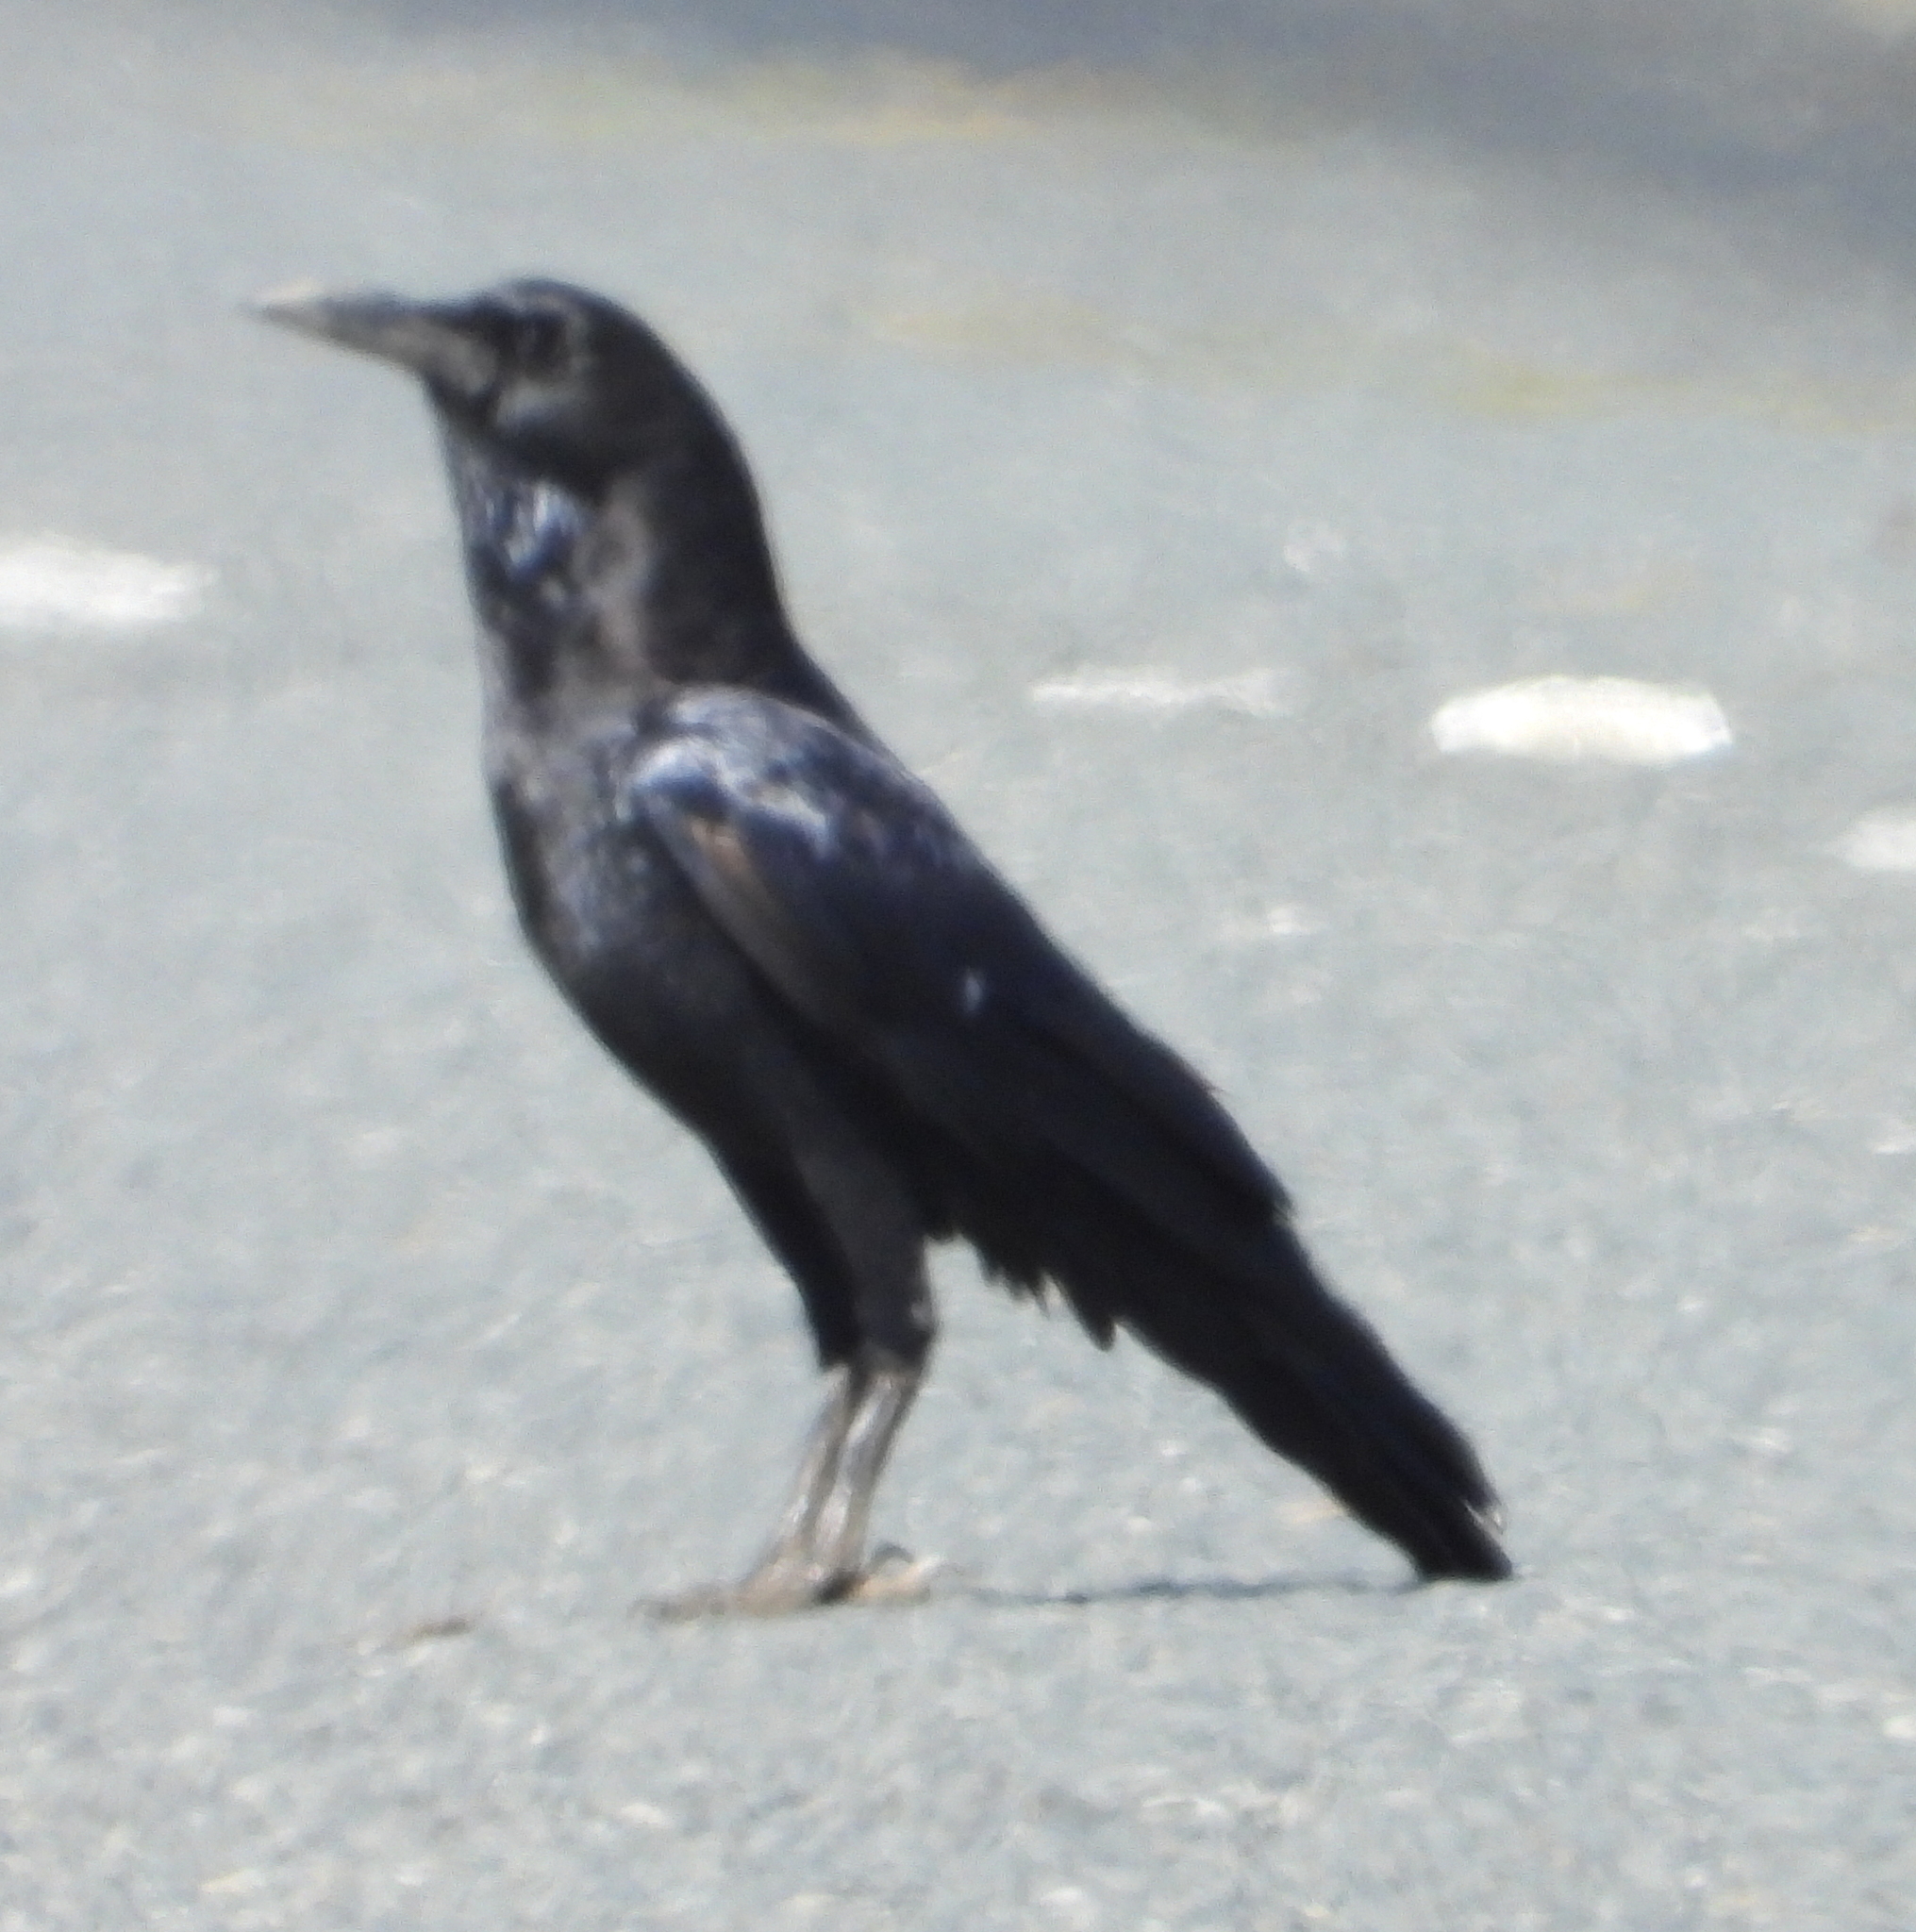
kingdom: Animalia
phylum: Chordata
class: Aves
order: Passeriformes
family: Corvidae
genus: Corvus
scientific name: Corvus capensis
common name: Cape crow
